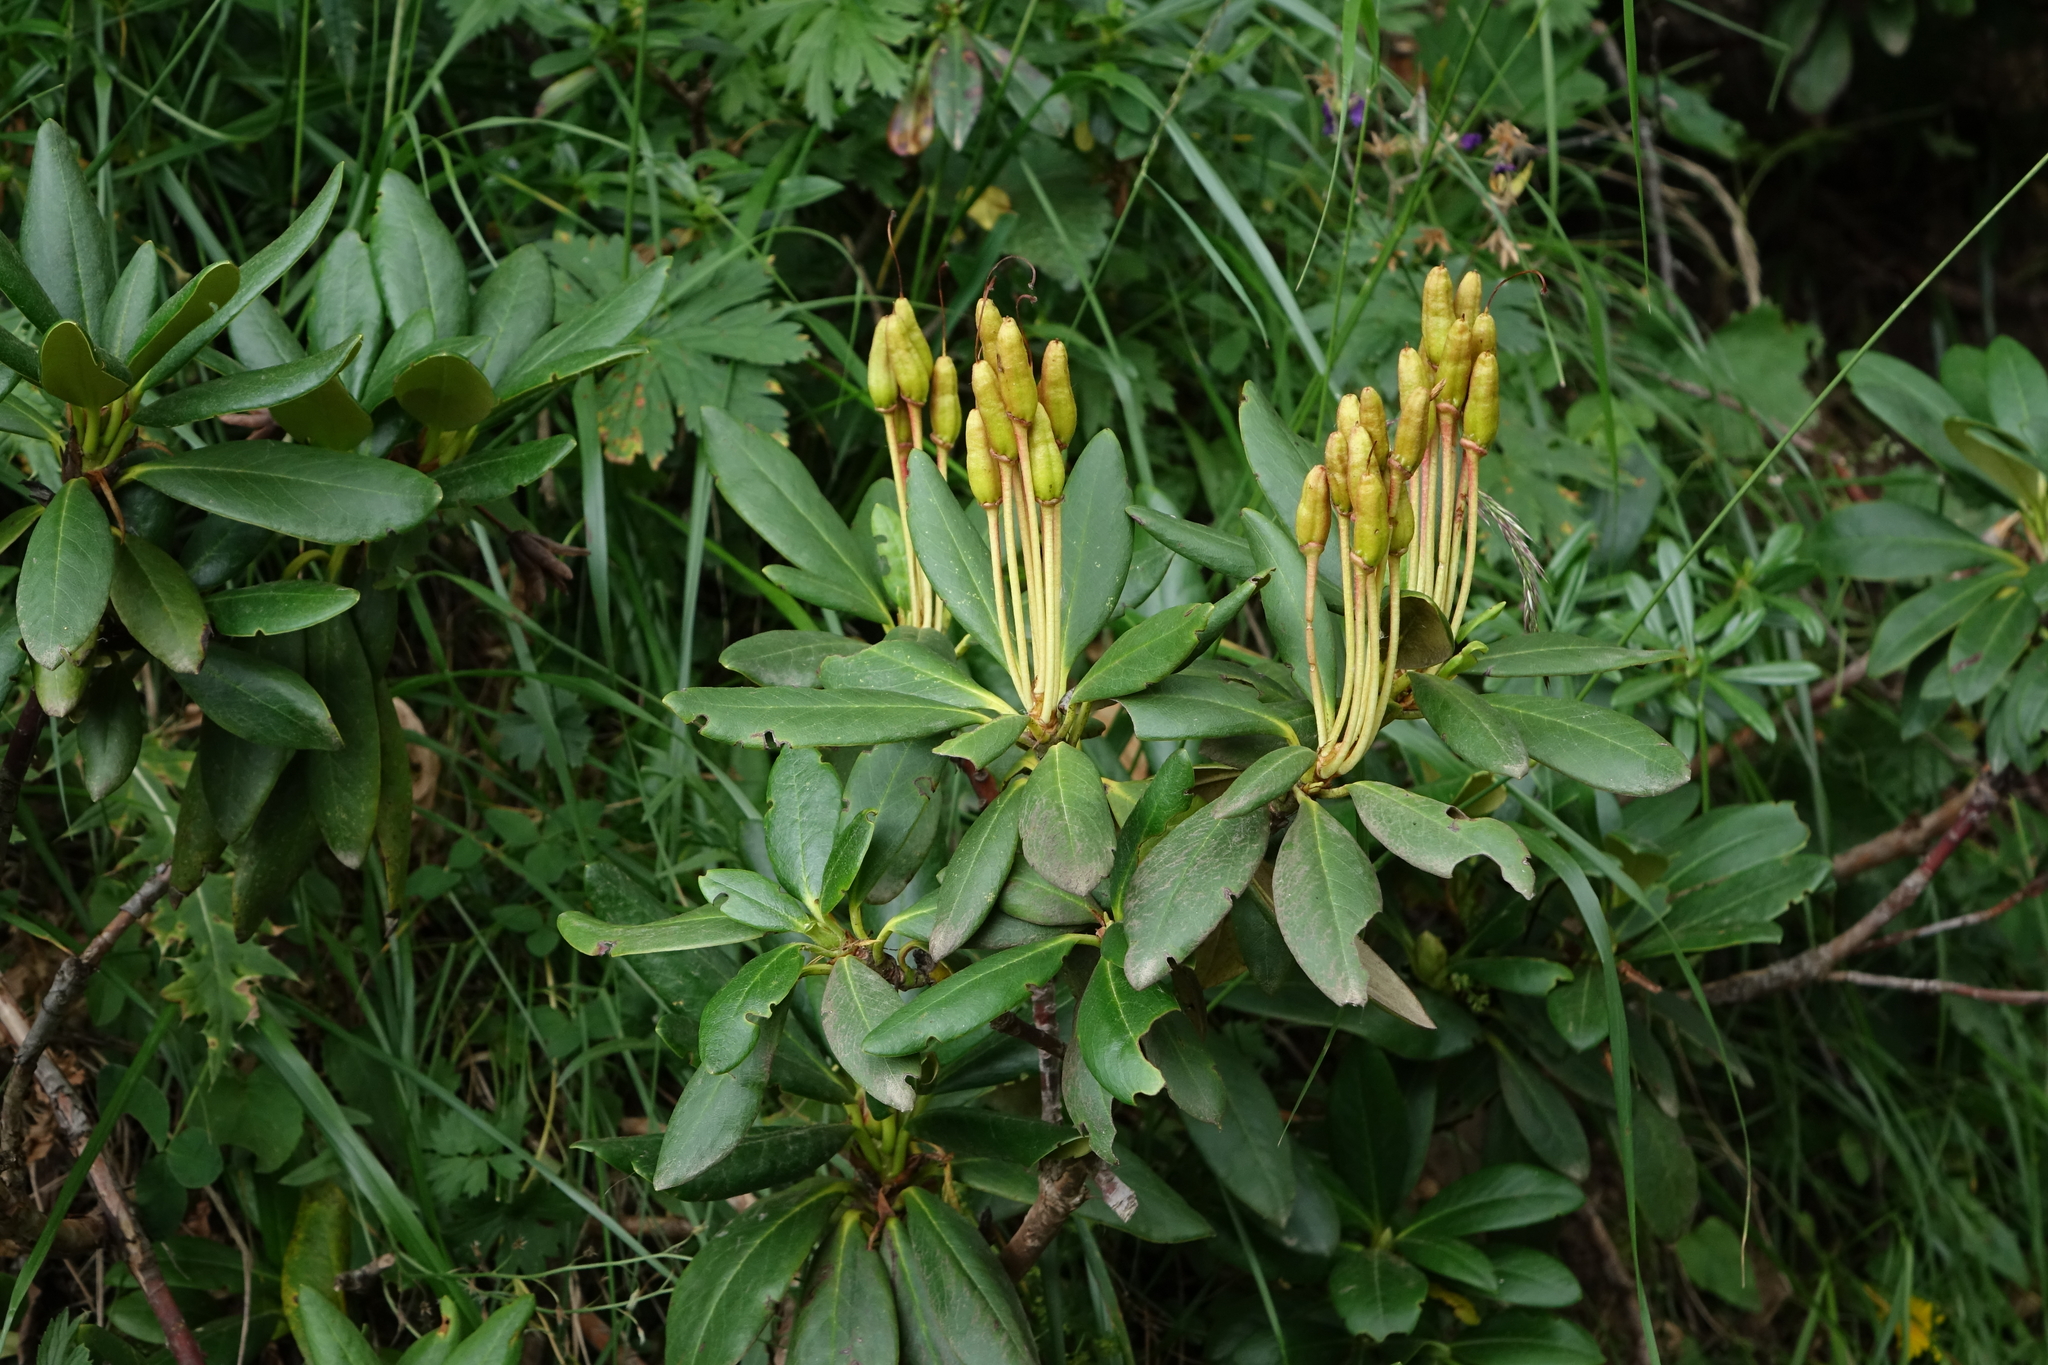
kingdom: Plantae
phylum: Tracheophyta
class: Magnoliopsida
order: Ericales
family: Ericaceae
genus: Rhododendron
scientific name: Rhododendron caucasicum
